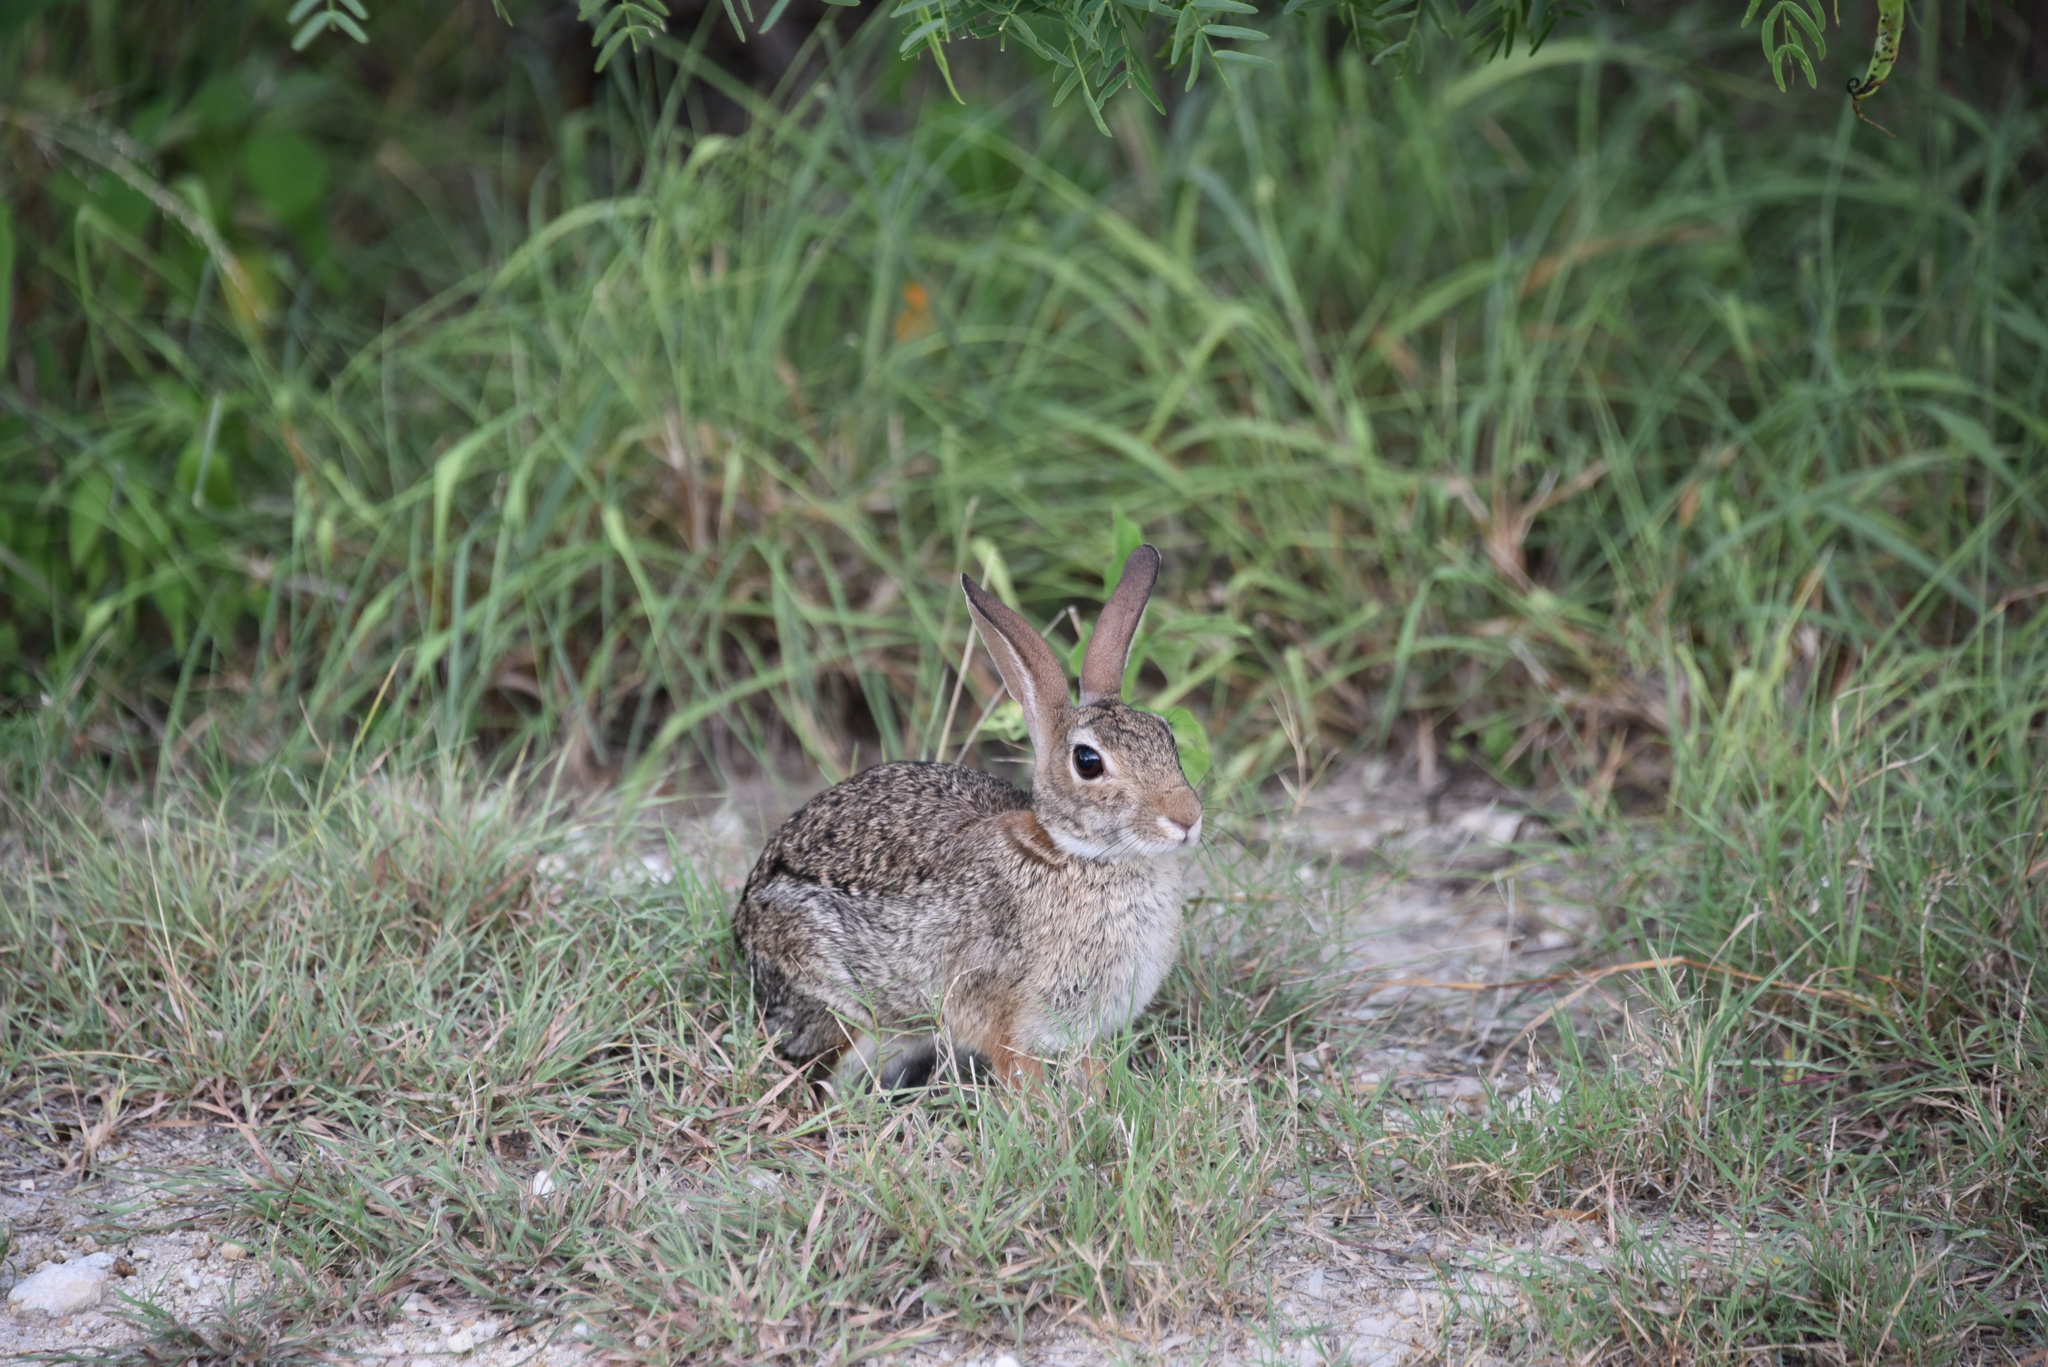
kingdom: Animalia
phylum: Chordata
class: Mammalia
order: Lagomorpha
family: Leporidae
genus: Sylvilagus
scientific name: Sylvilagus floridanus
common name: Eastern cottontail
